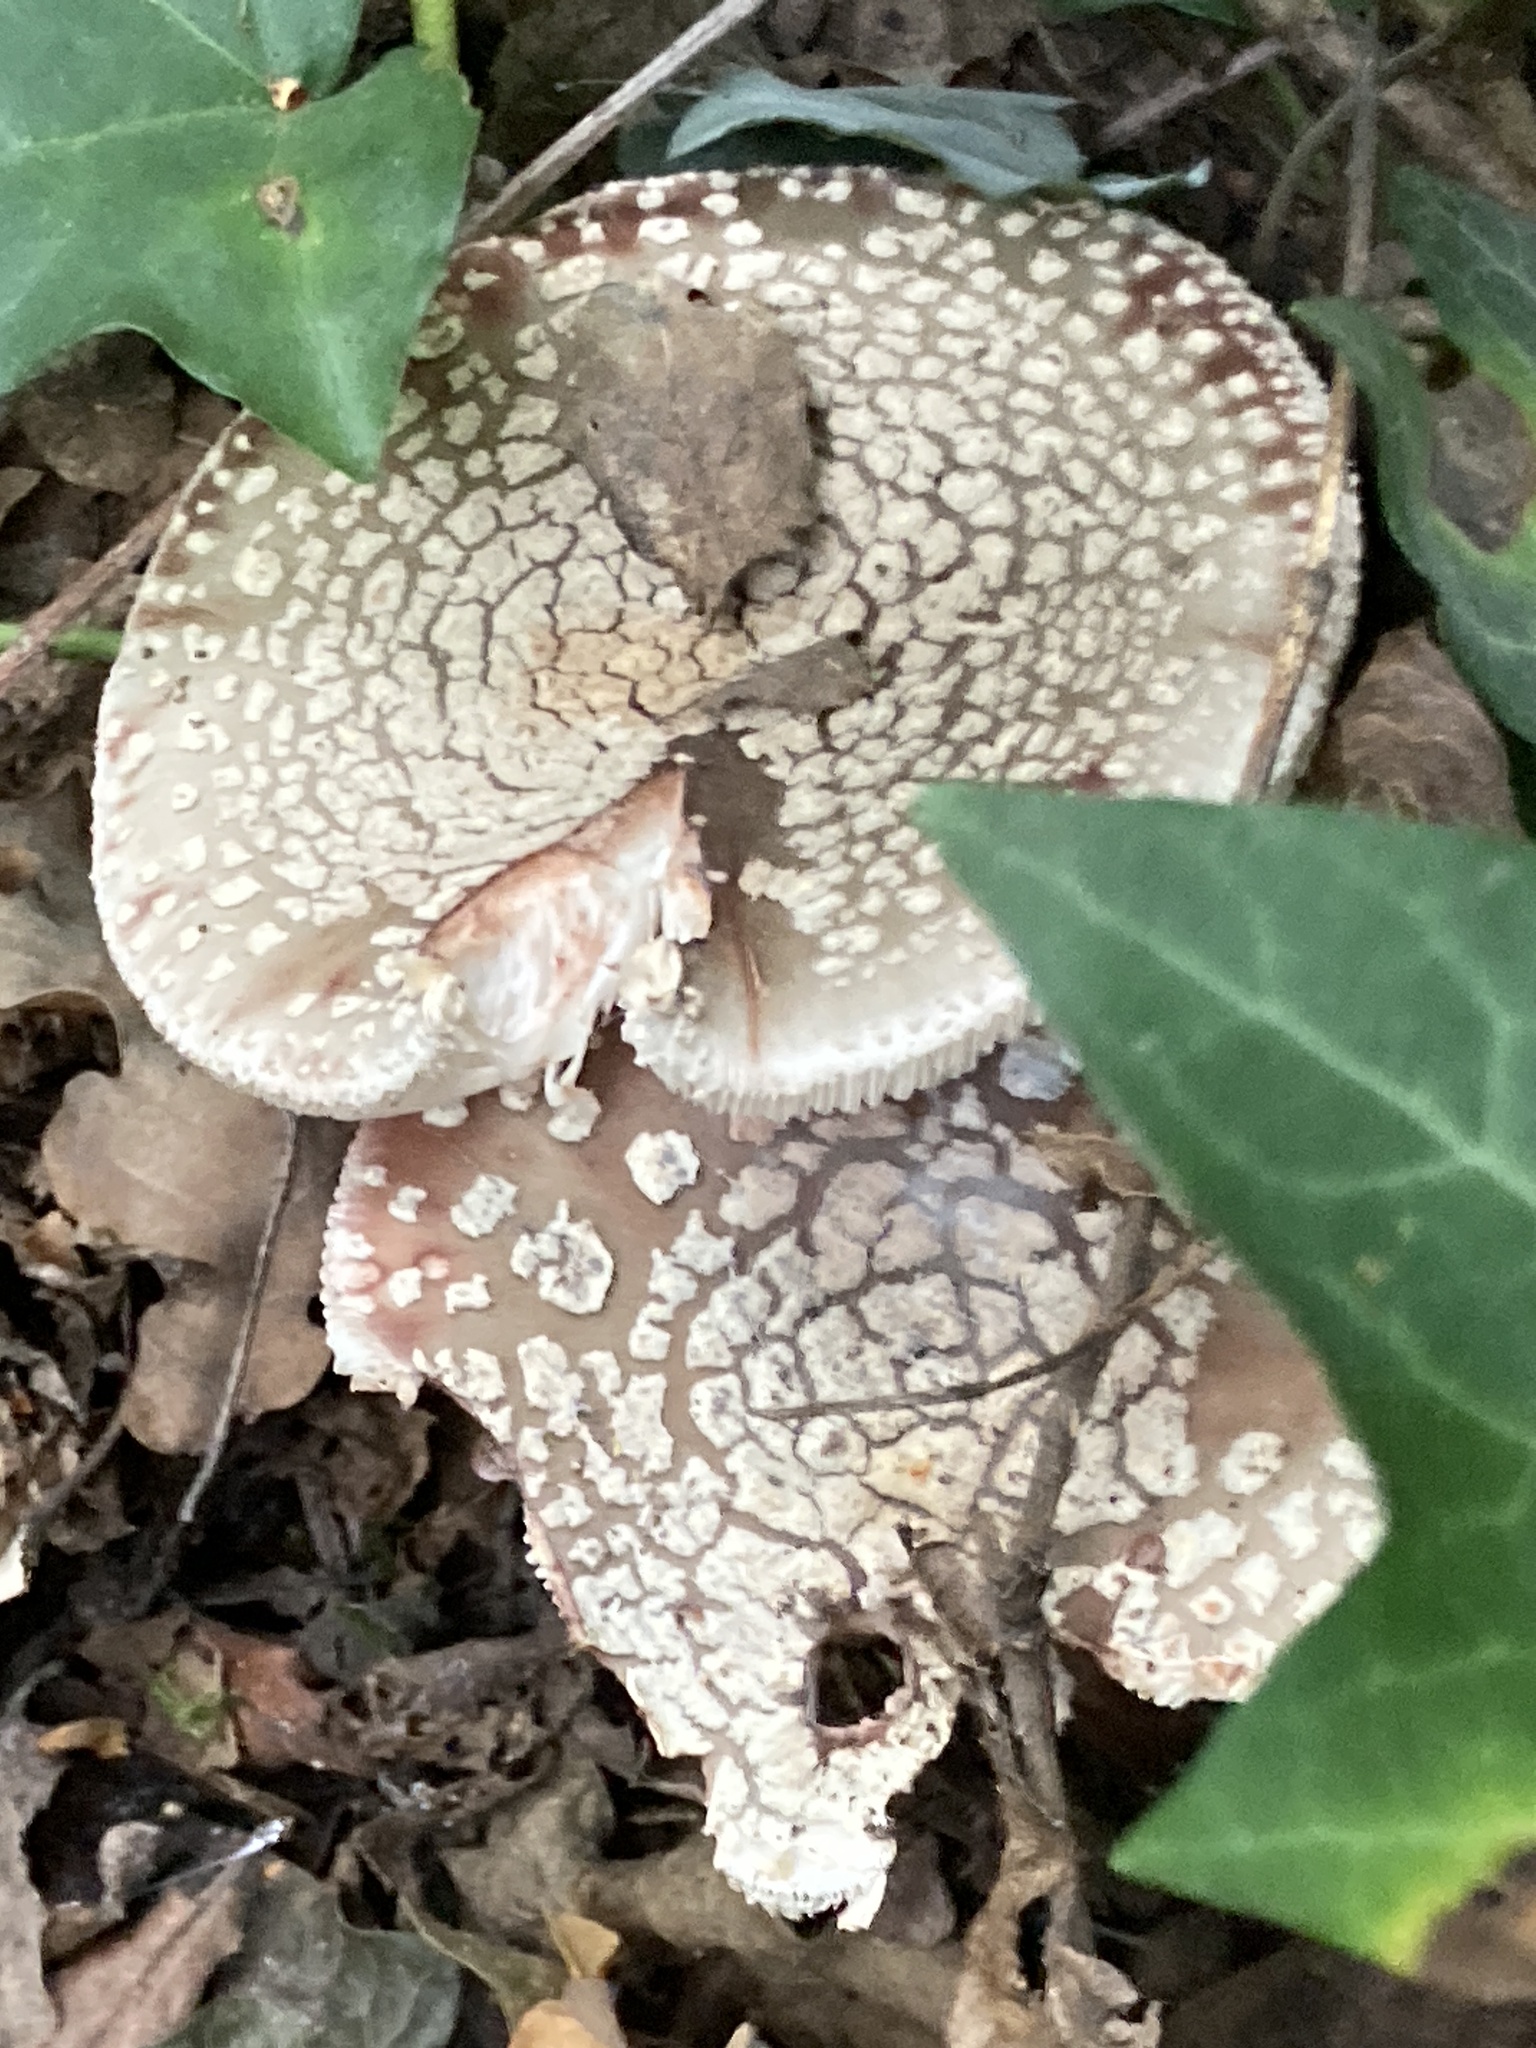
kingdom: Fungi
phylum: Basidiomycota
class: Agaricomycetes
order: Agaricales
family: Amanitaceae
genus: Amanita
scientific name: Amanita rubescens
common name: Blusher
